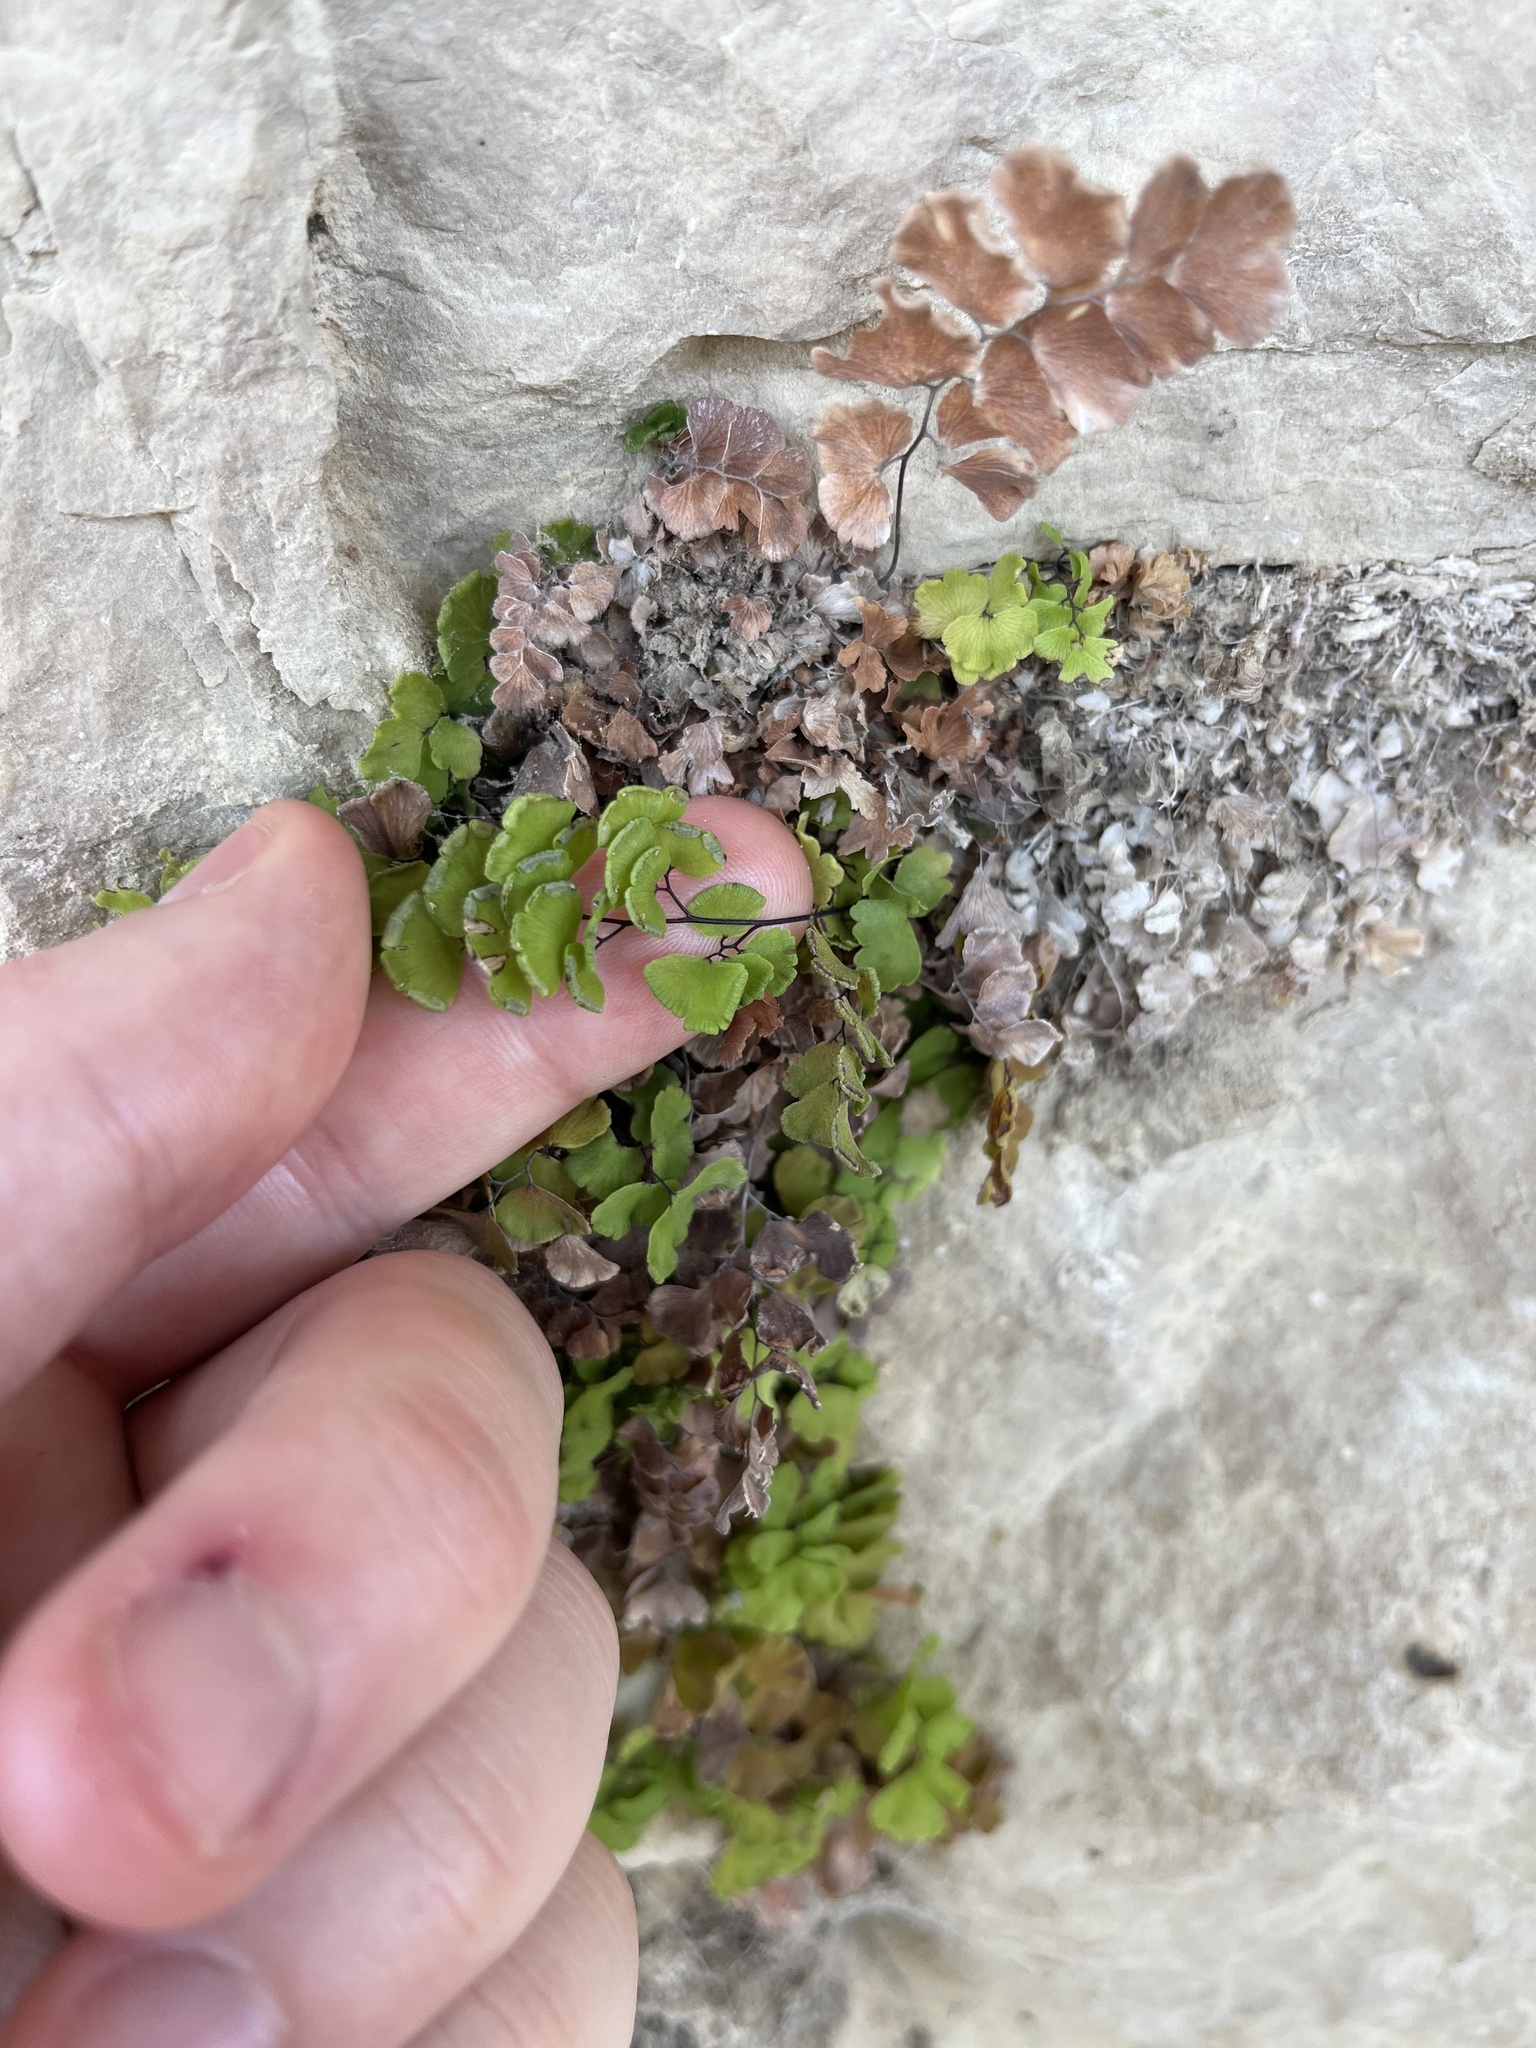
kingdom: Plantae
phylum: Tracheophyta
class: Polypodiopsida
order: Polypodiales
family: Pteridaceae
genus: Adiantum
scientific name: Adiantum capillus-veneris
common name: Maidenhair fern
